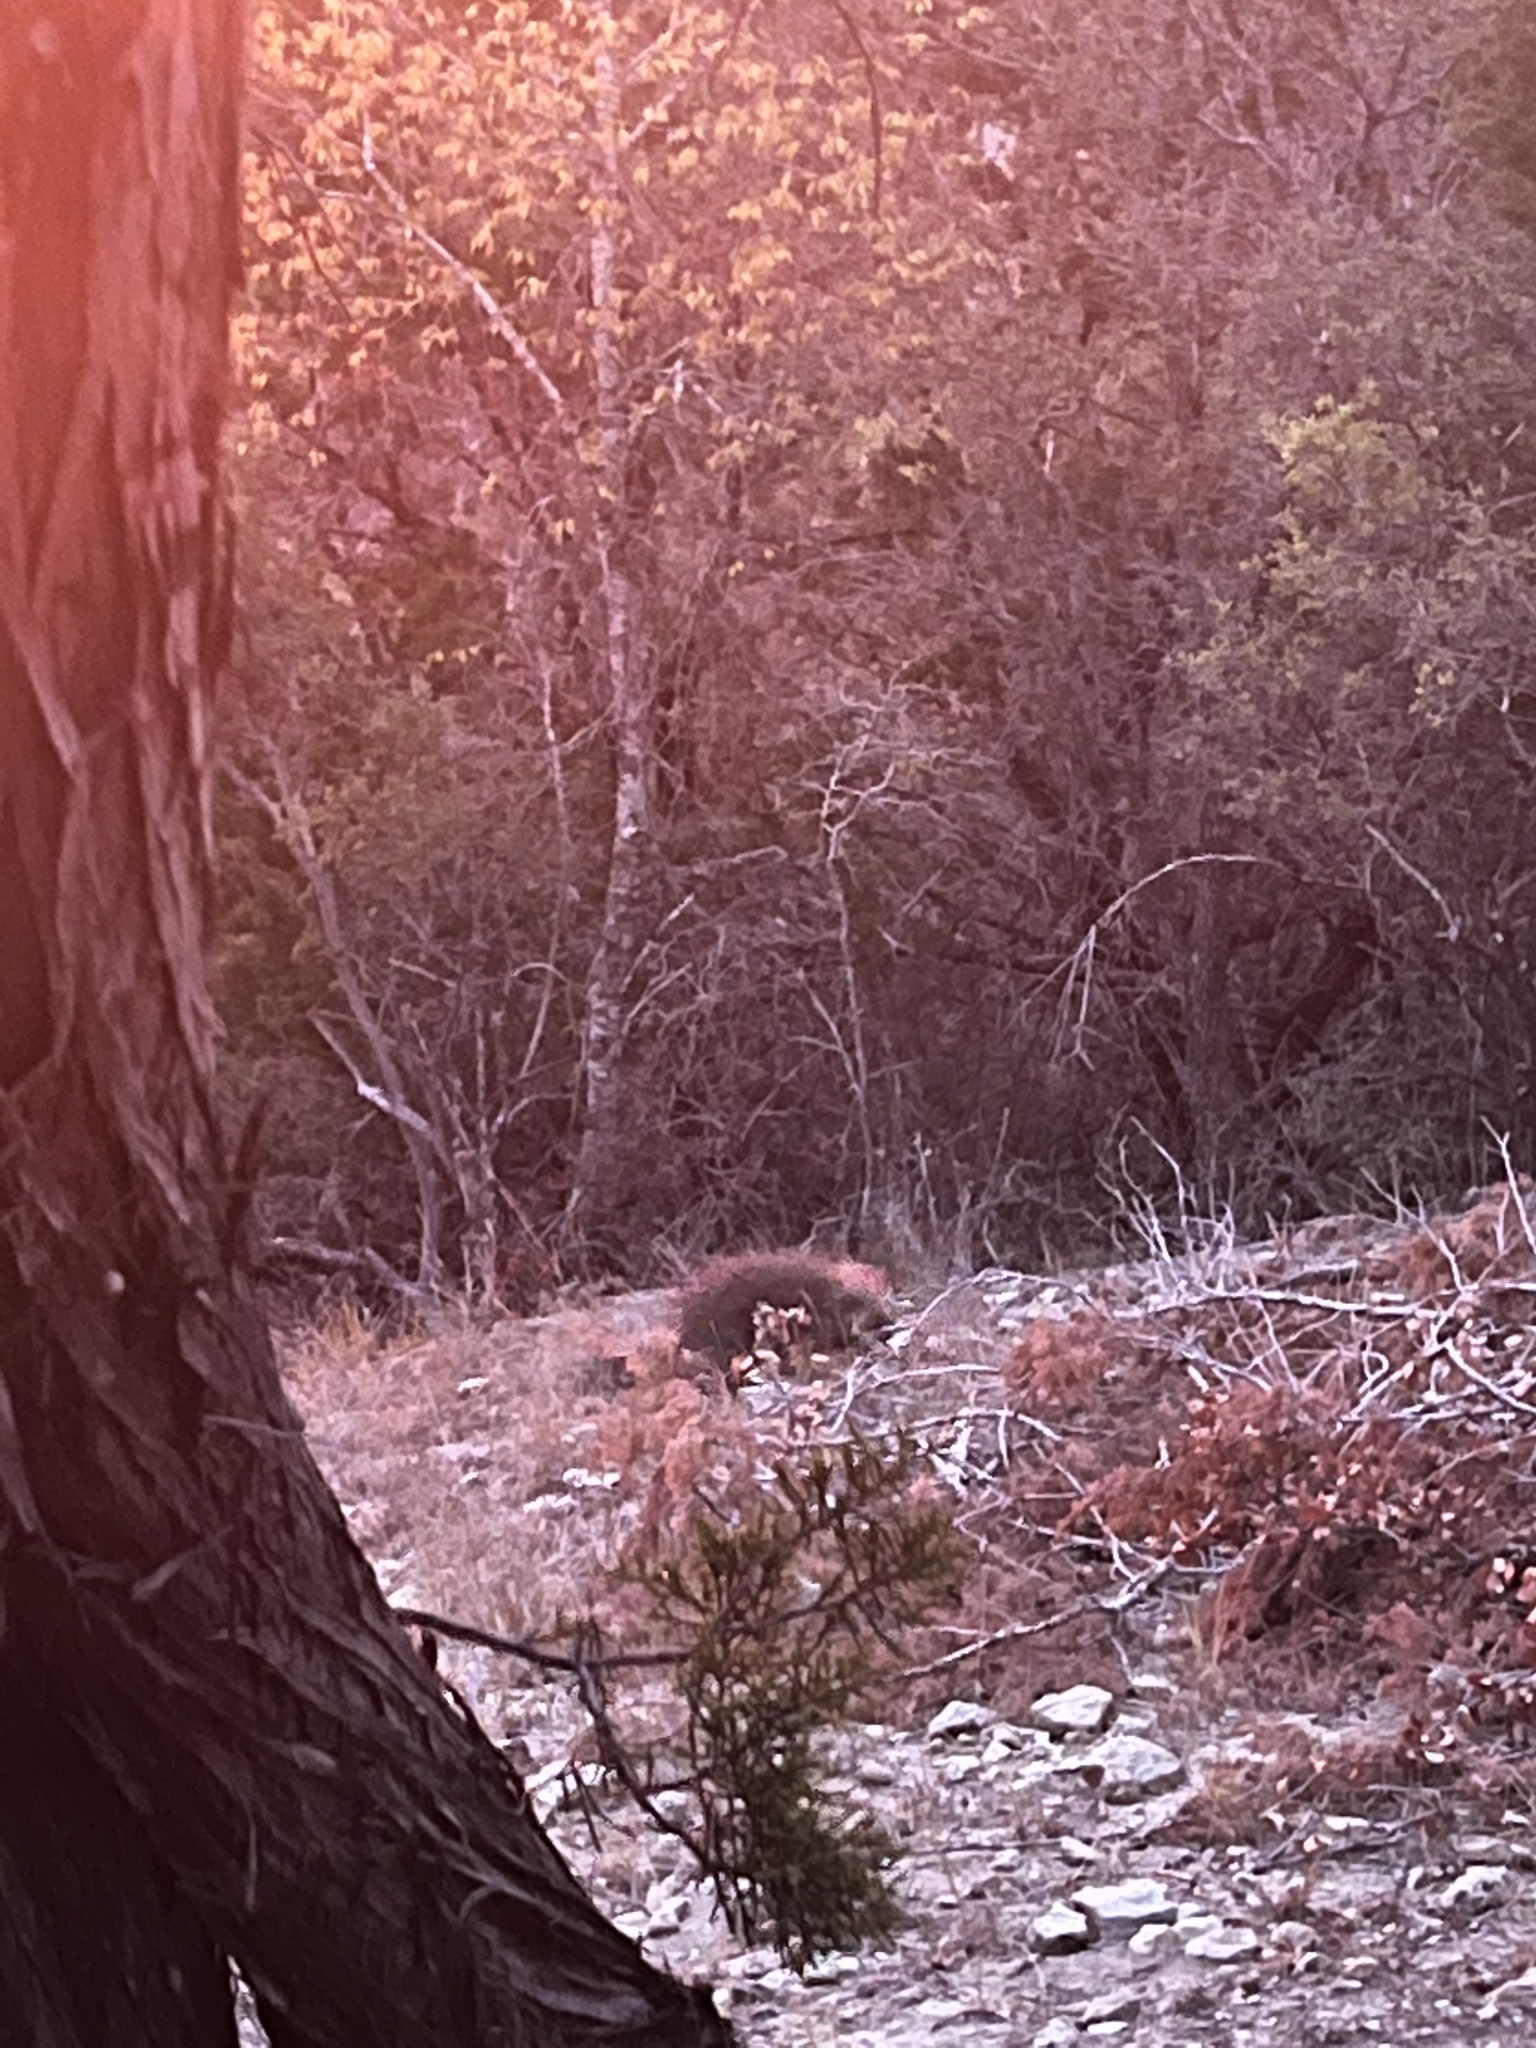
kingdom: Animalia
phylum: Chordata
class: Mammalia
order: Rodentia
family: Erethizontidae
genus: Erethizon
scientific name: Erethizon dorsatus
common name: North american porcupine
